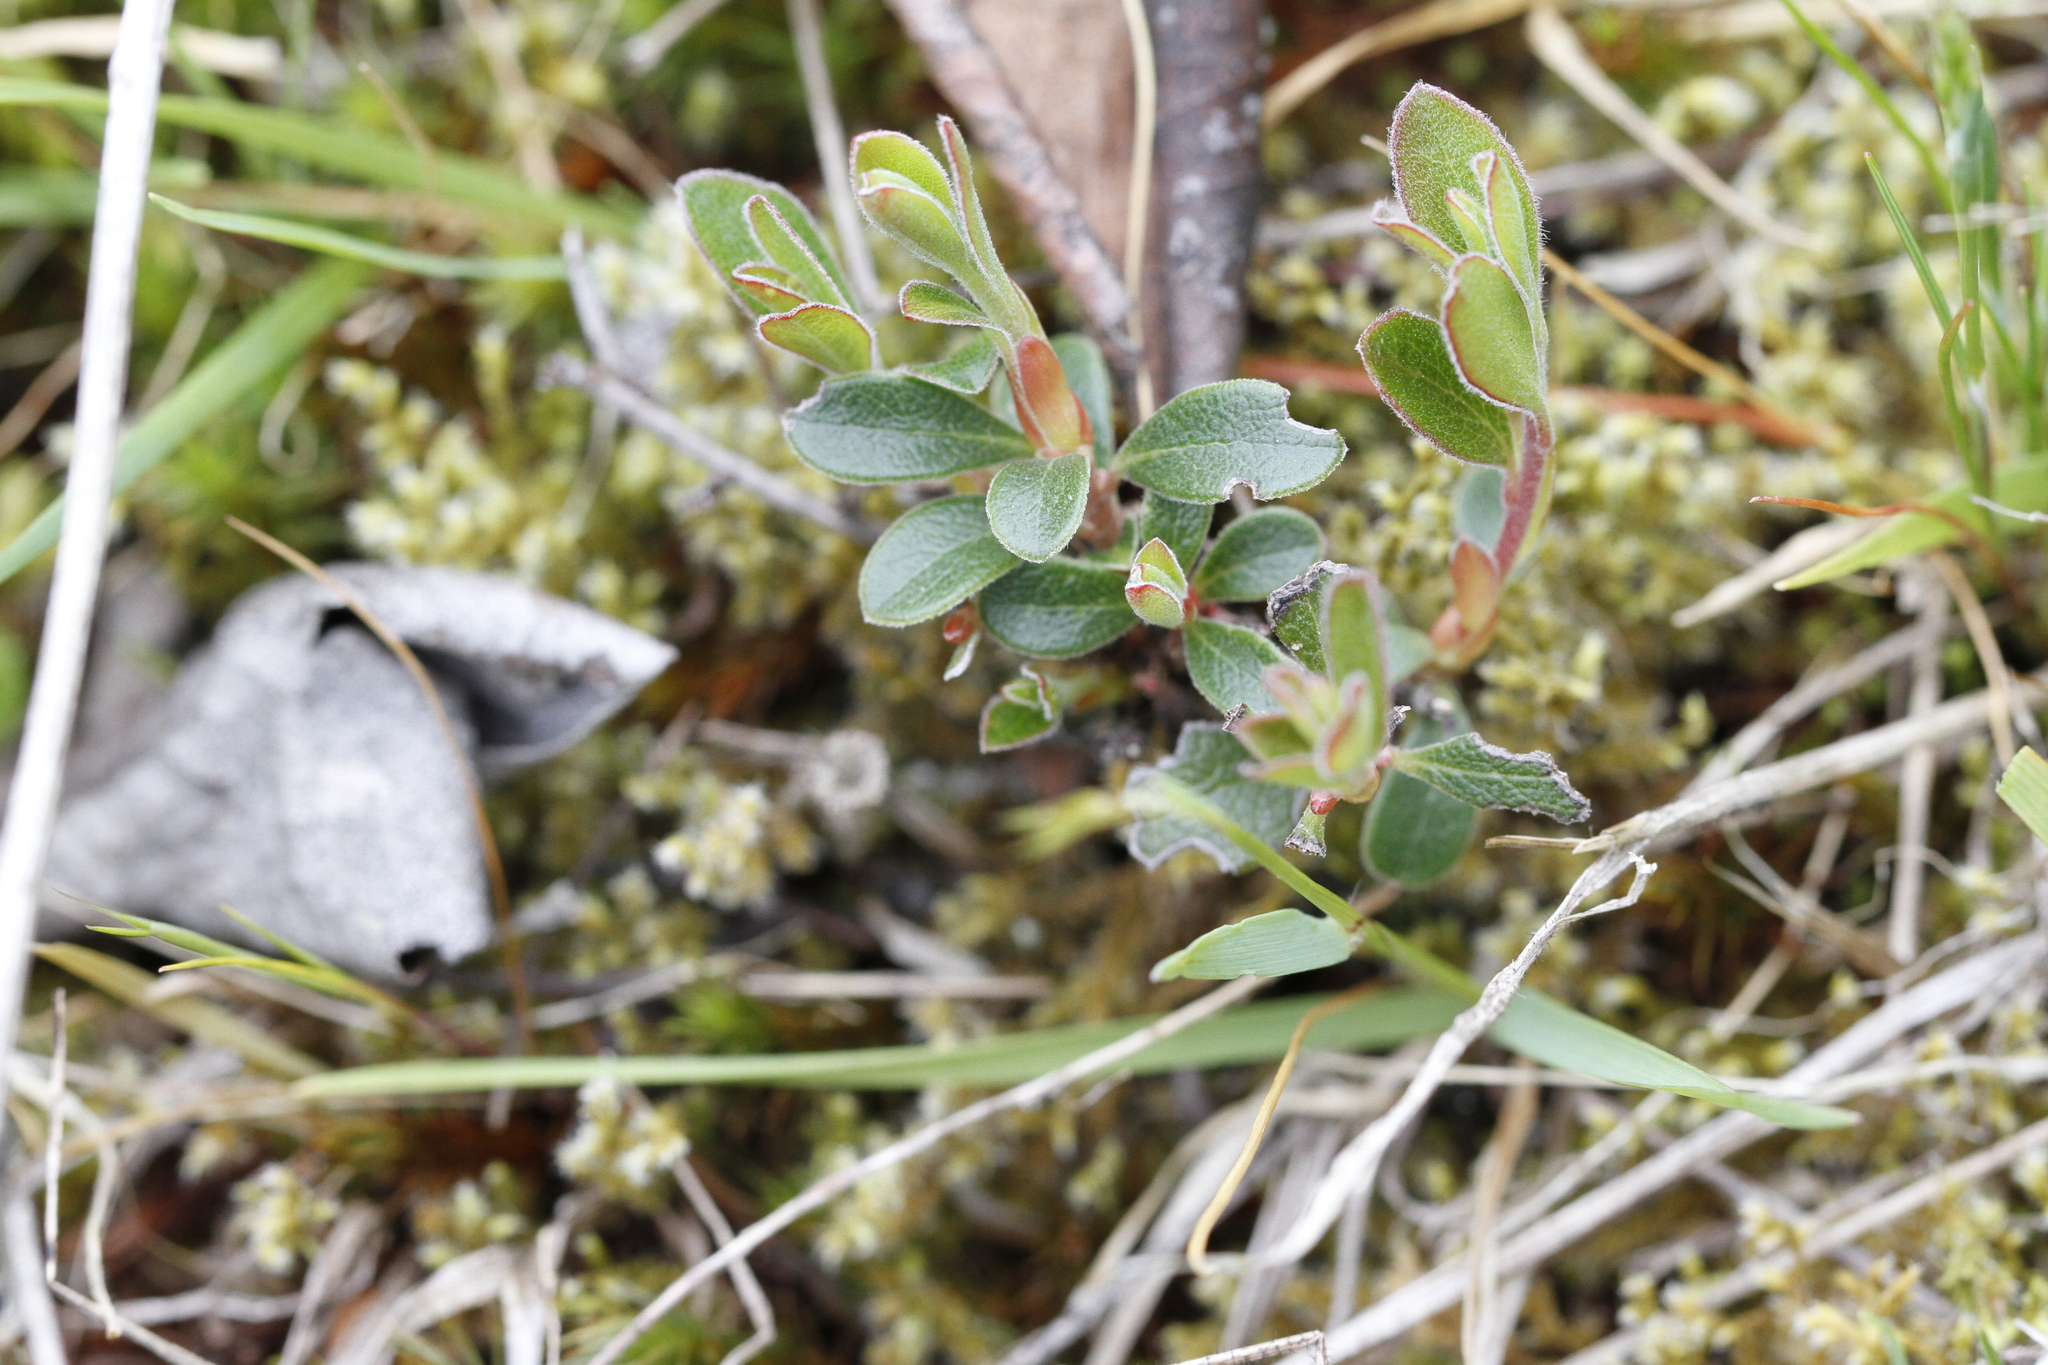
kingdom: Plantae
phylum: Tracheophyta
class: Magnoliopsida
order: Ericales
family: Ericaceae
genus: Arctostaphylos
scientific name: Arctostaphylos uva-ursi
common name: Bearberry
